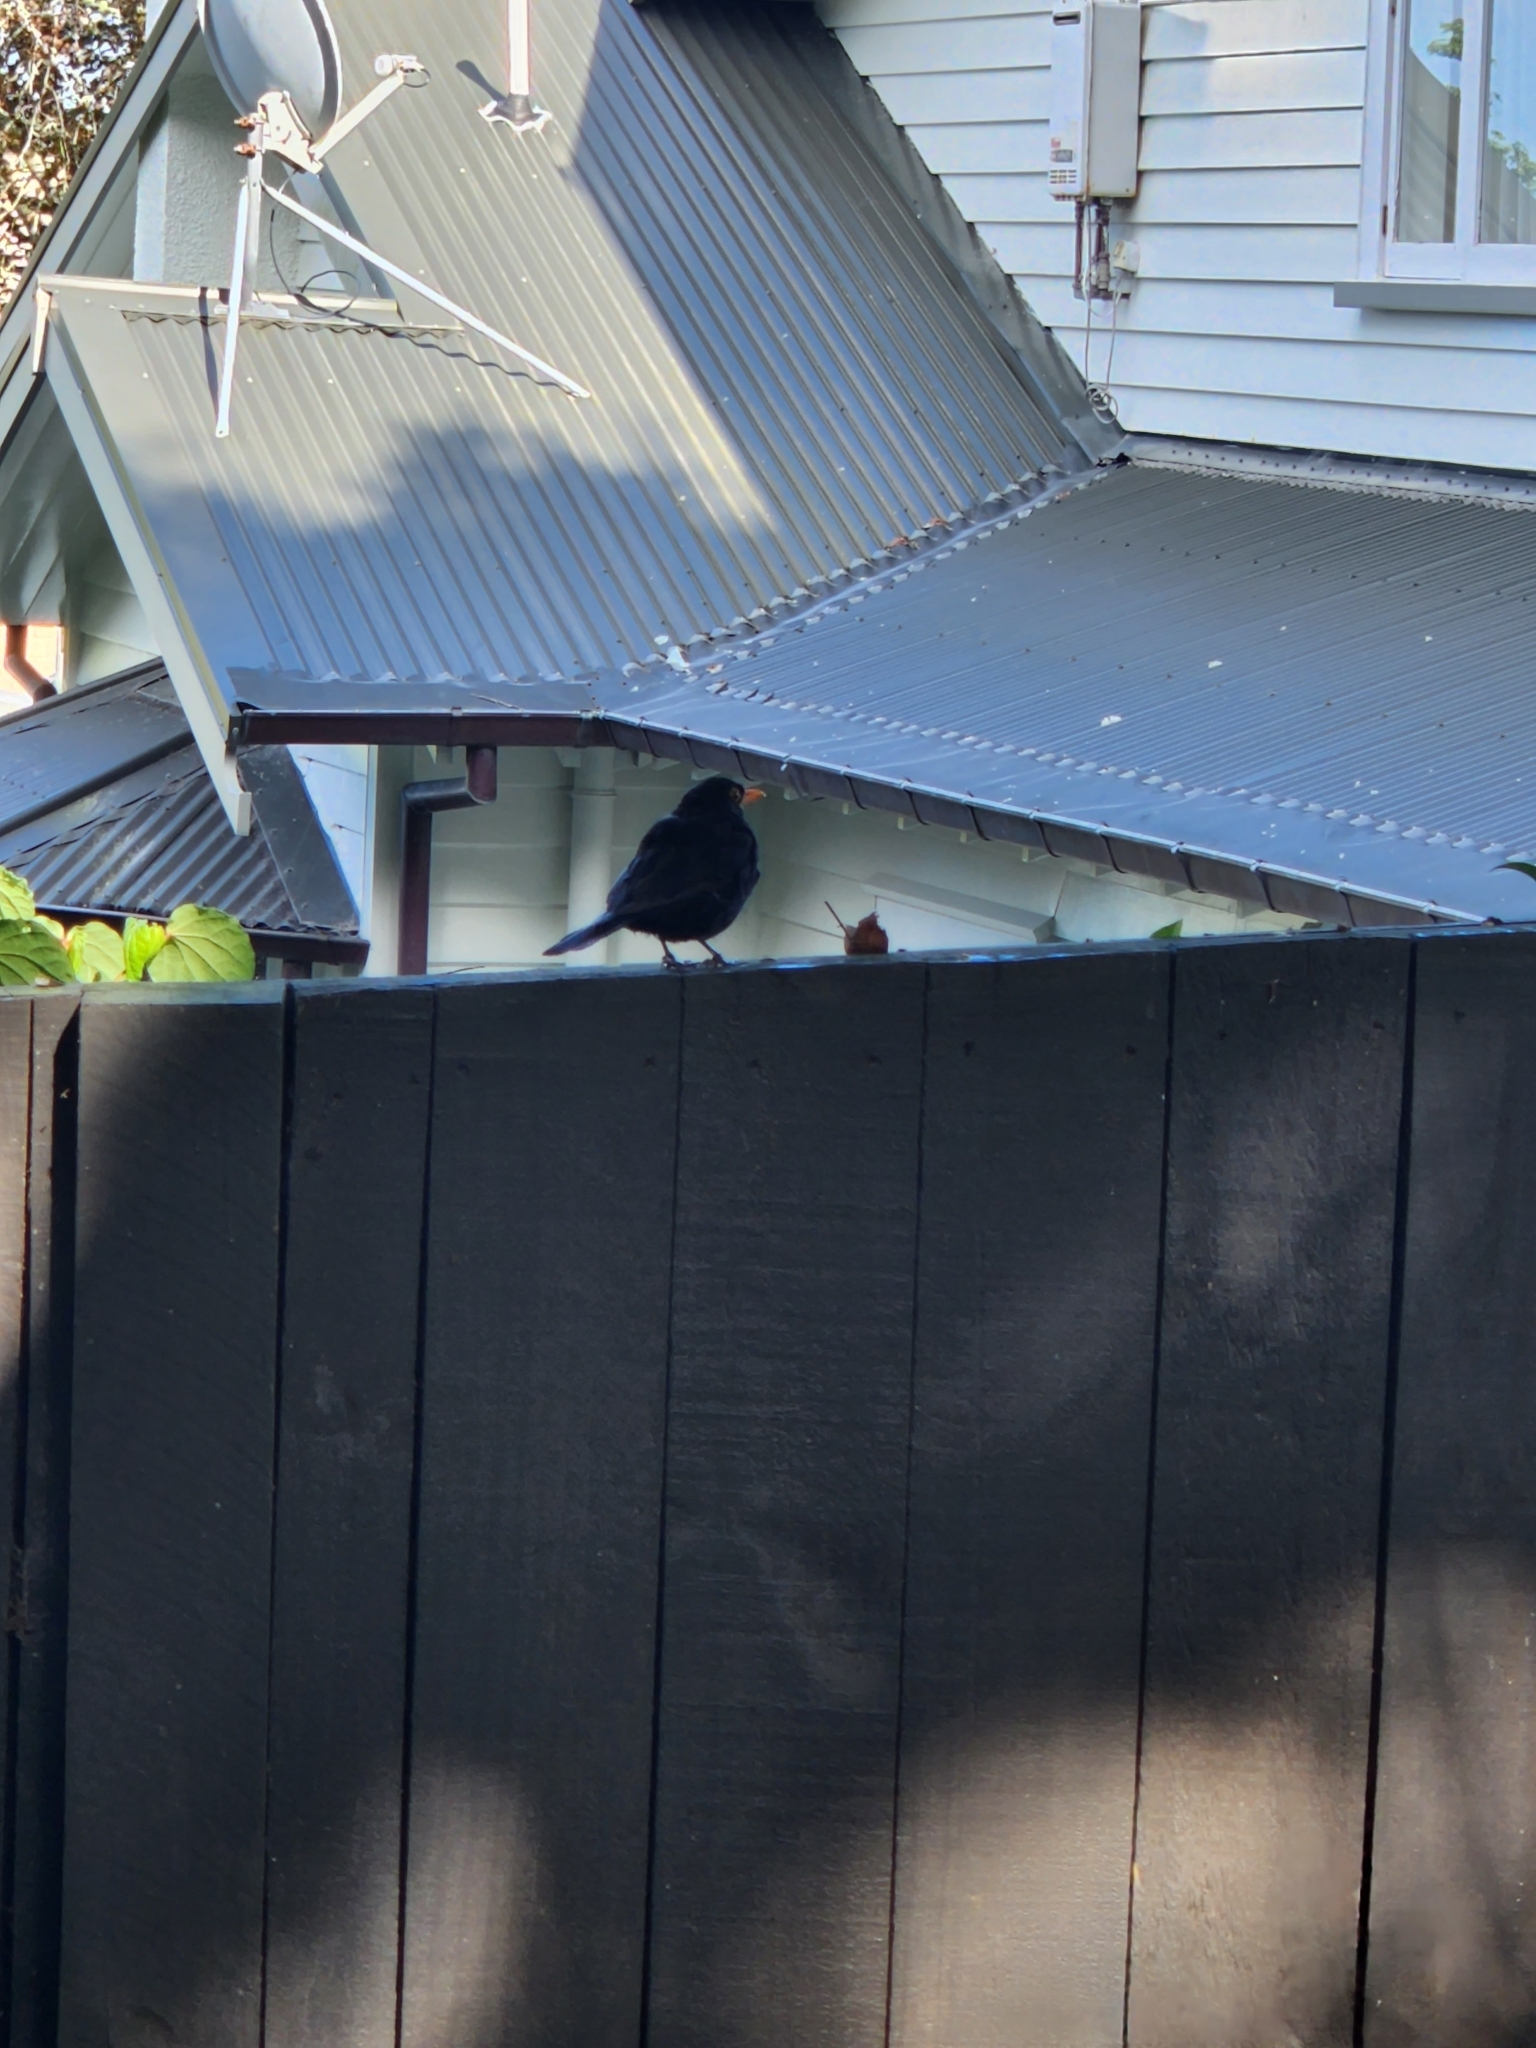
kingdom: Animalia
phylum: Chordata
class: Aves
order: Passeriformes
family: Turdidae
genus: Turdus
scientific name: Turdus merula
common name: Common blackbird
